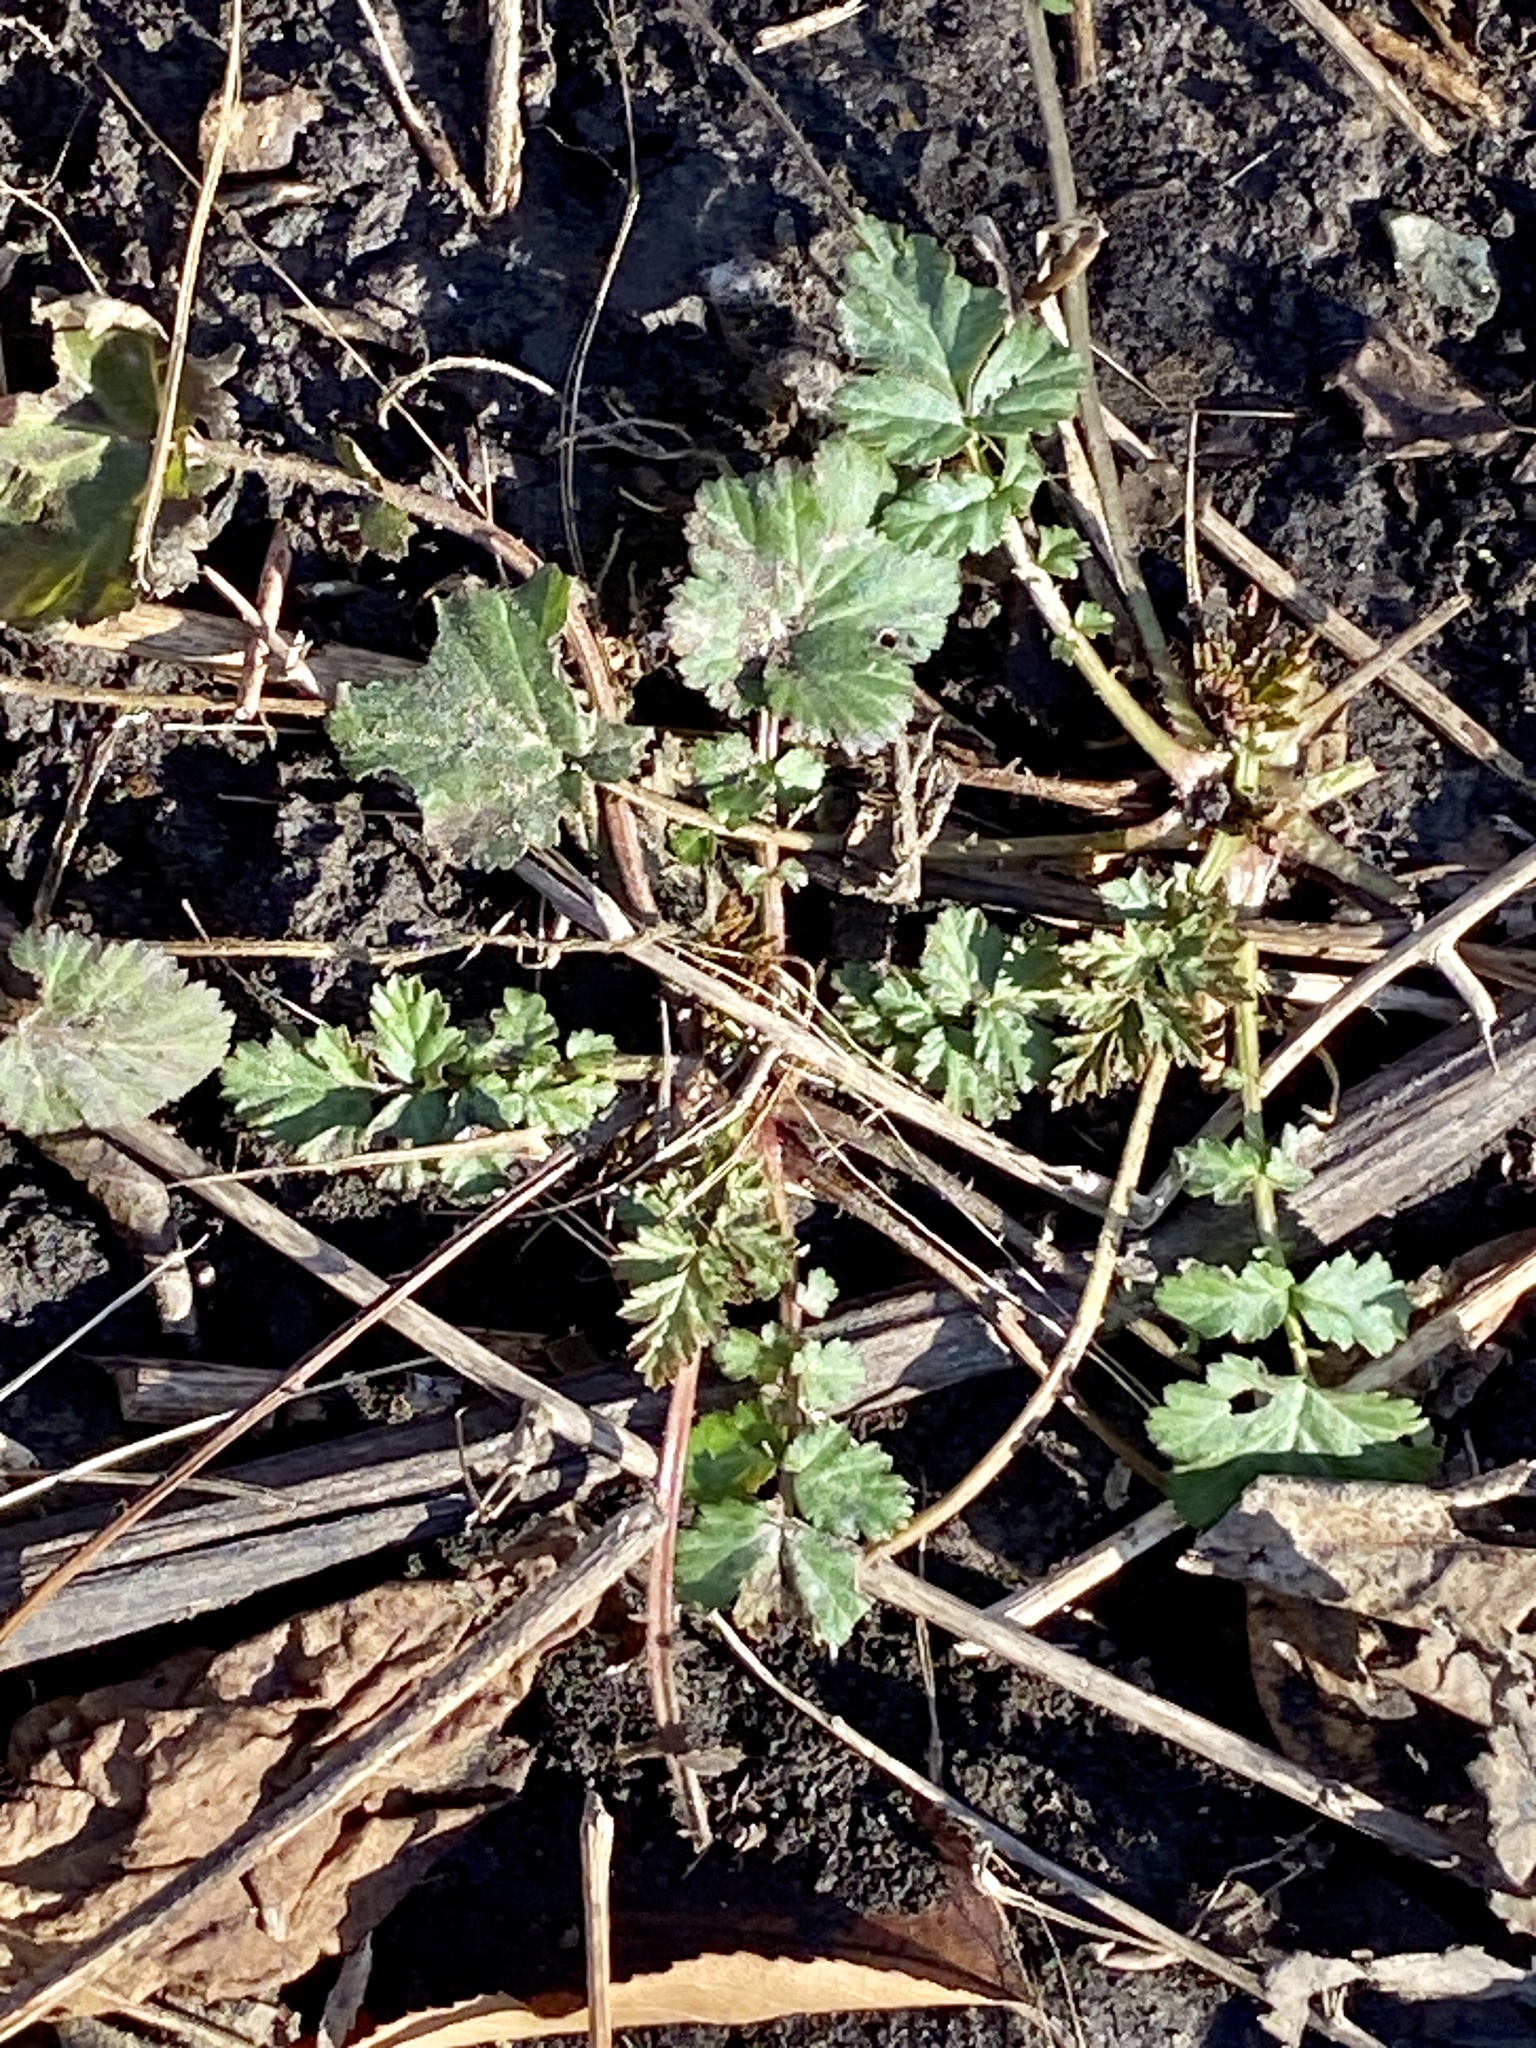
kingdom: Plantae
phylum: Tracheophyta
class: Magnoliopsida
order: Rosales
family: Rosaceae
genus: Geum
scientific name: Geum canadense
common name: White avens
